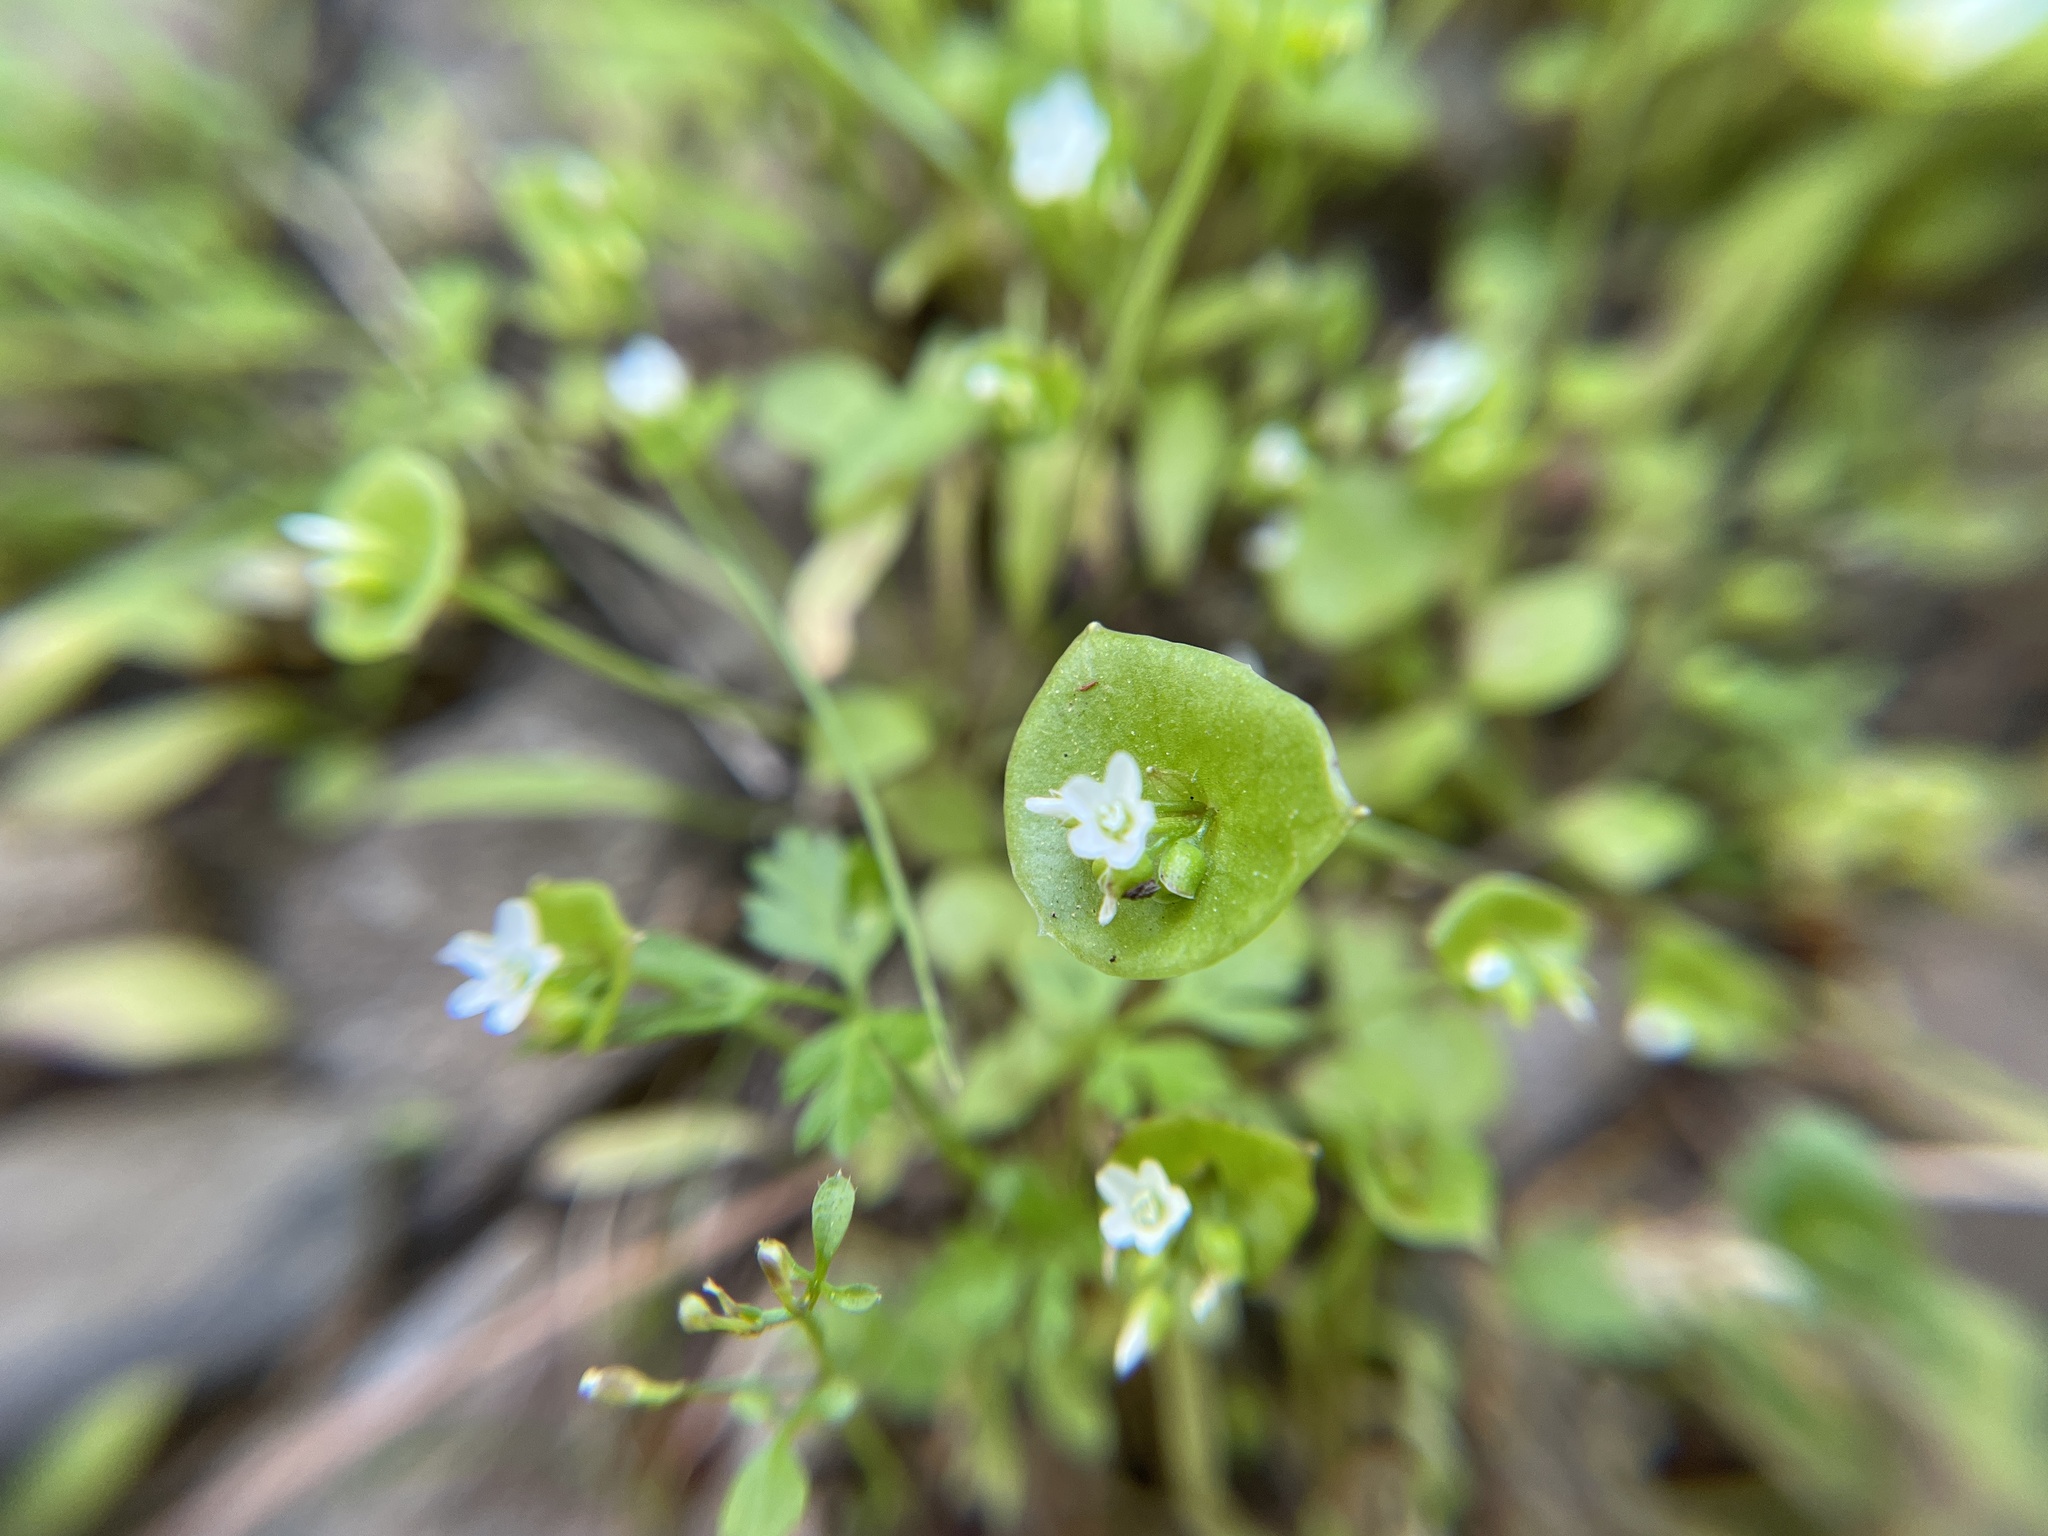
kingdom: Plantae
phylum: Tracheophyta
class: Magnoliopsida
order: Caryophyllales
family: Montiaceae
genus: Claytonia
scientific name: Claytonia perfoliata
